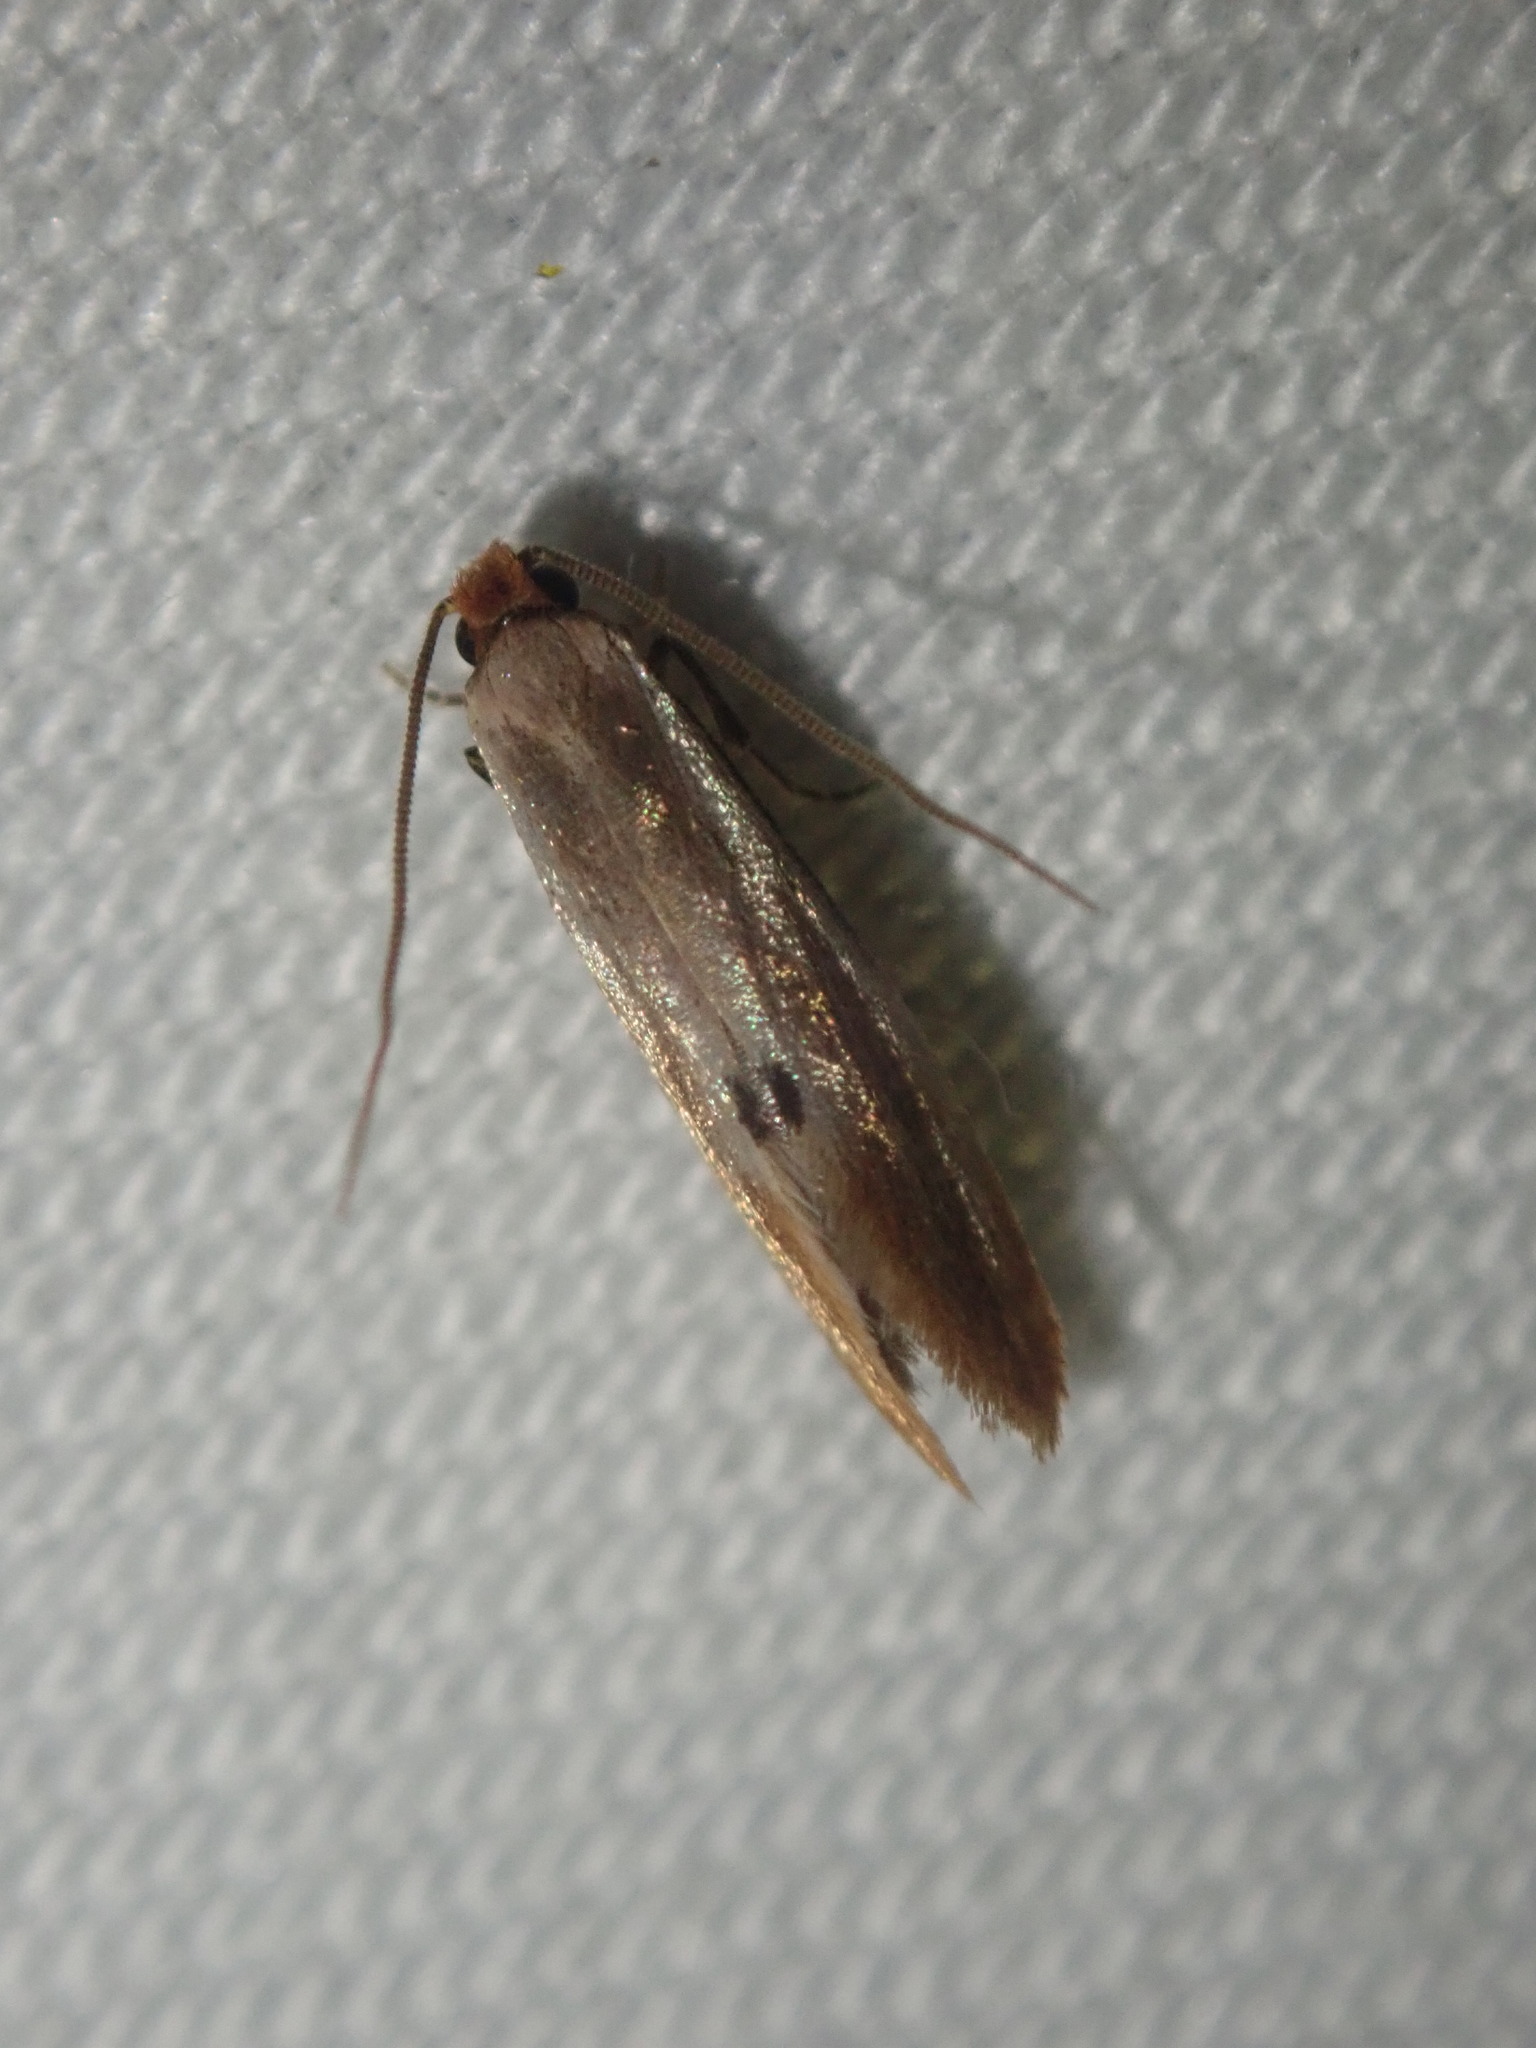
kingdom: Animalia
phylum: Arthropoda
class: Insecta
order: Lepidoptera
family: Tineidae
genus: Tinea
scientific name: Tinea semifulvella
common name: Fulvous clothes
